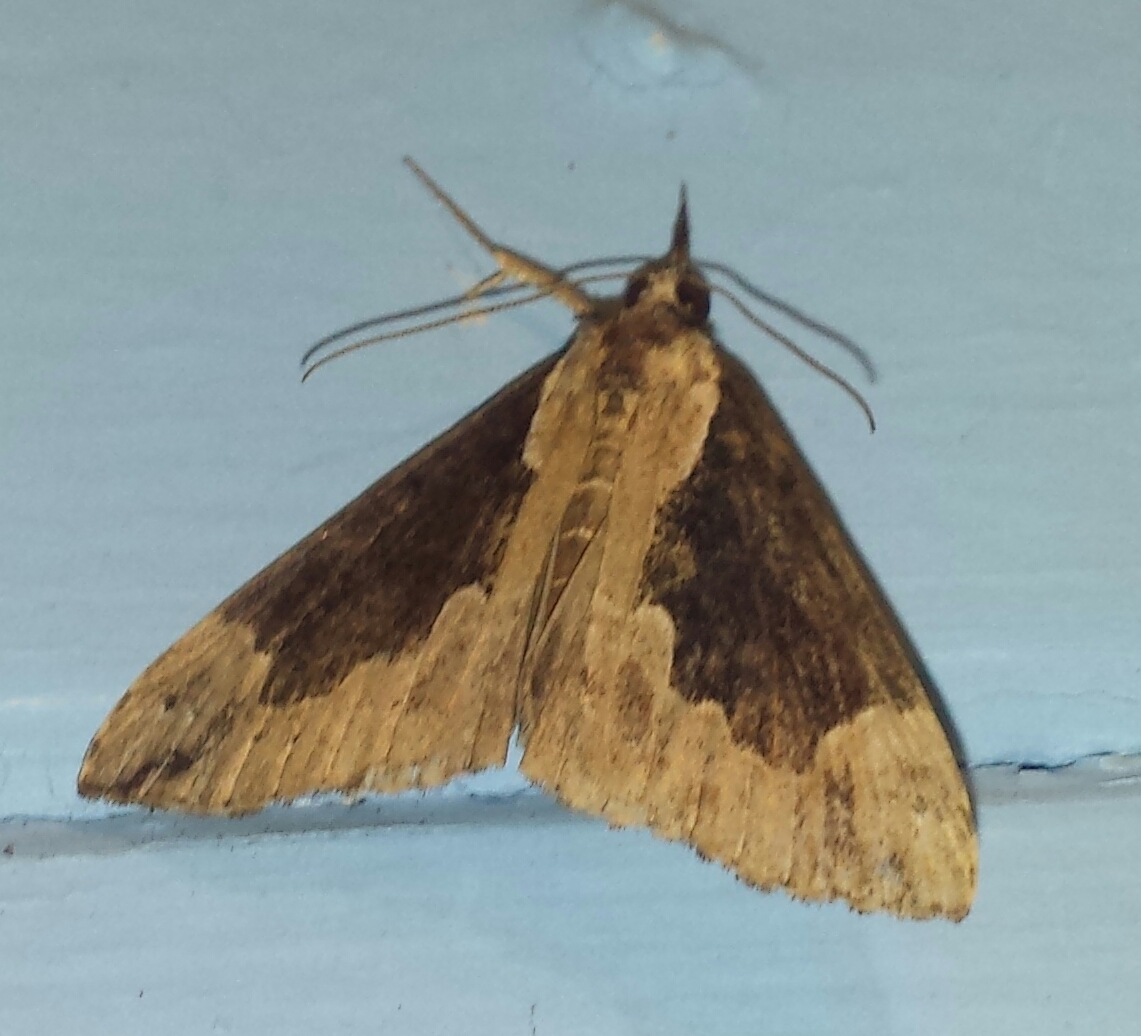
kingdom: Animalia
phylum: Arthropoda
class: Insecta
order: Lepidoptera
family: Erebidae
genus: Hypena
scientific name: Hypena baltimoralis
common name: Baltimore snout
